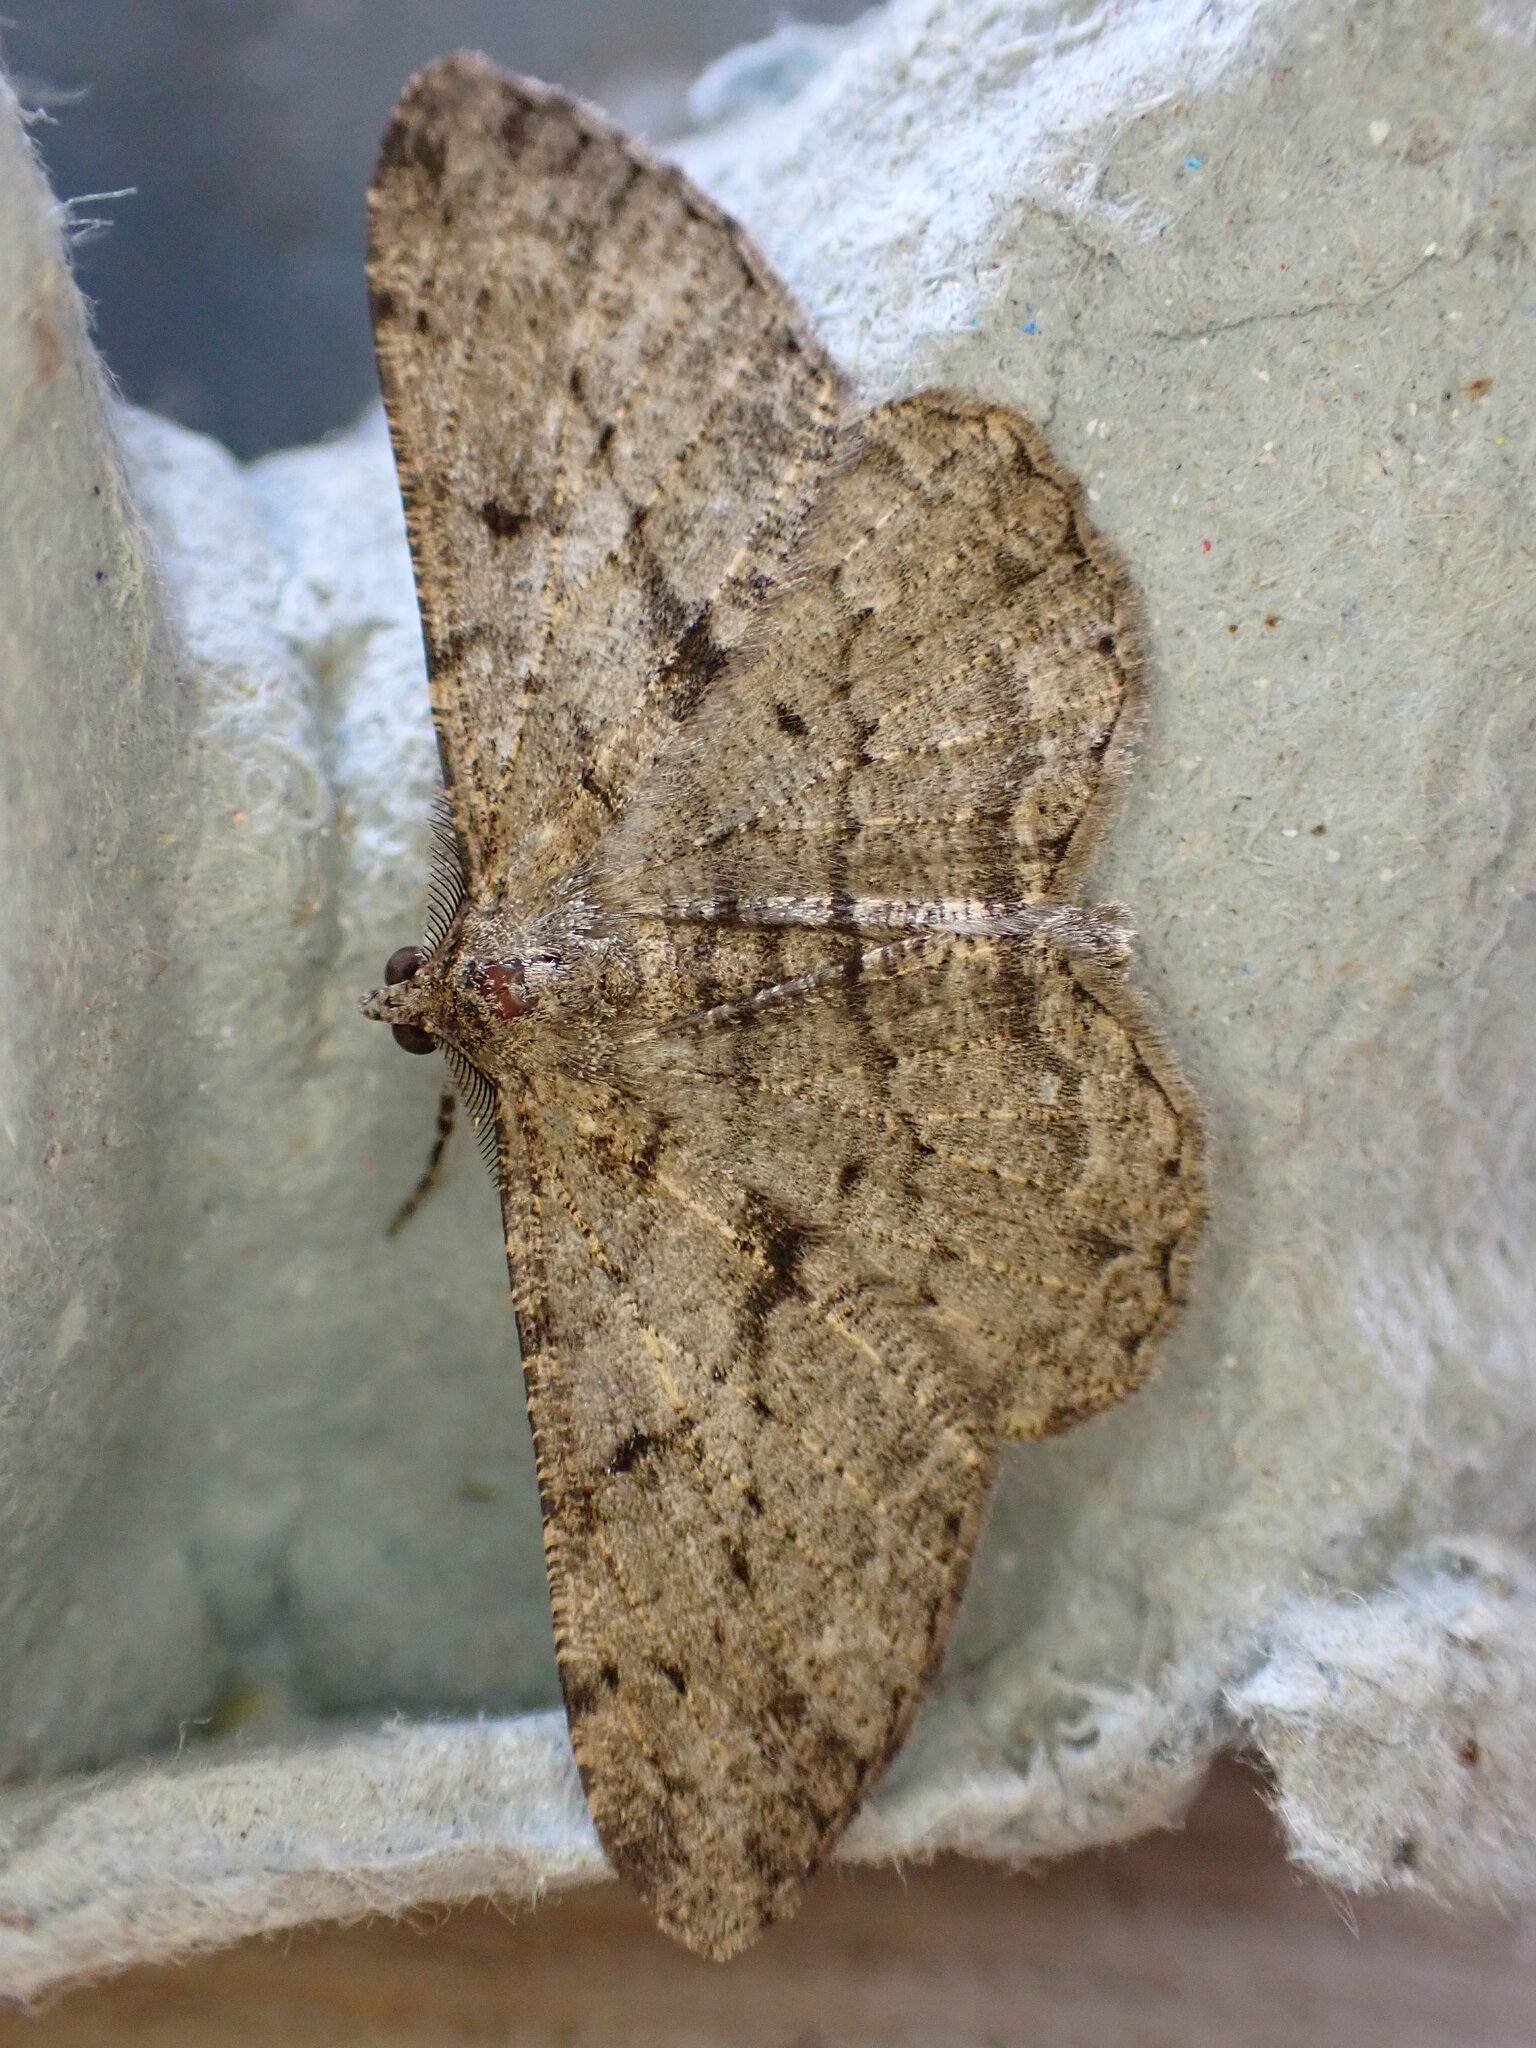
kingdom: Animalia
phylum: Arthropoda
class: Insecta
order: Lepidoptera
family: Geometridae
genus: Peribatodes
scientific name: Peribatodes rhomboidaria
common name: Willow beauty
